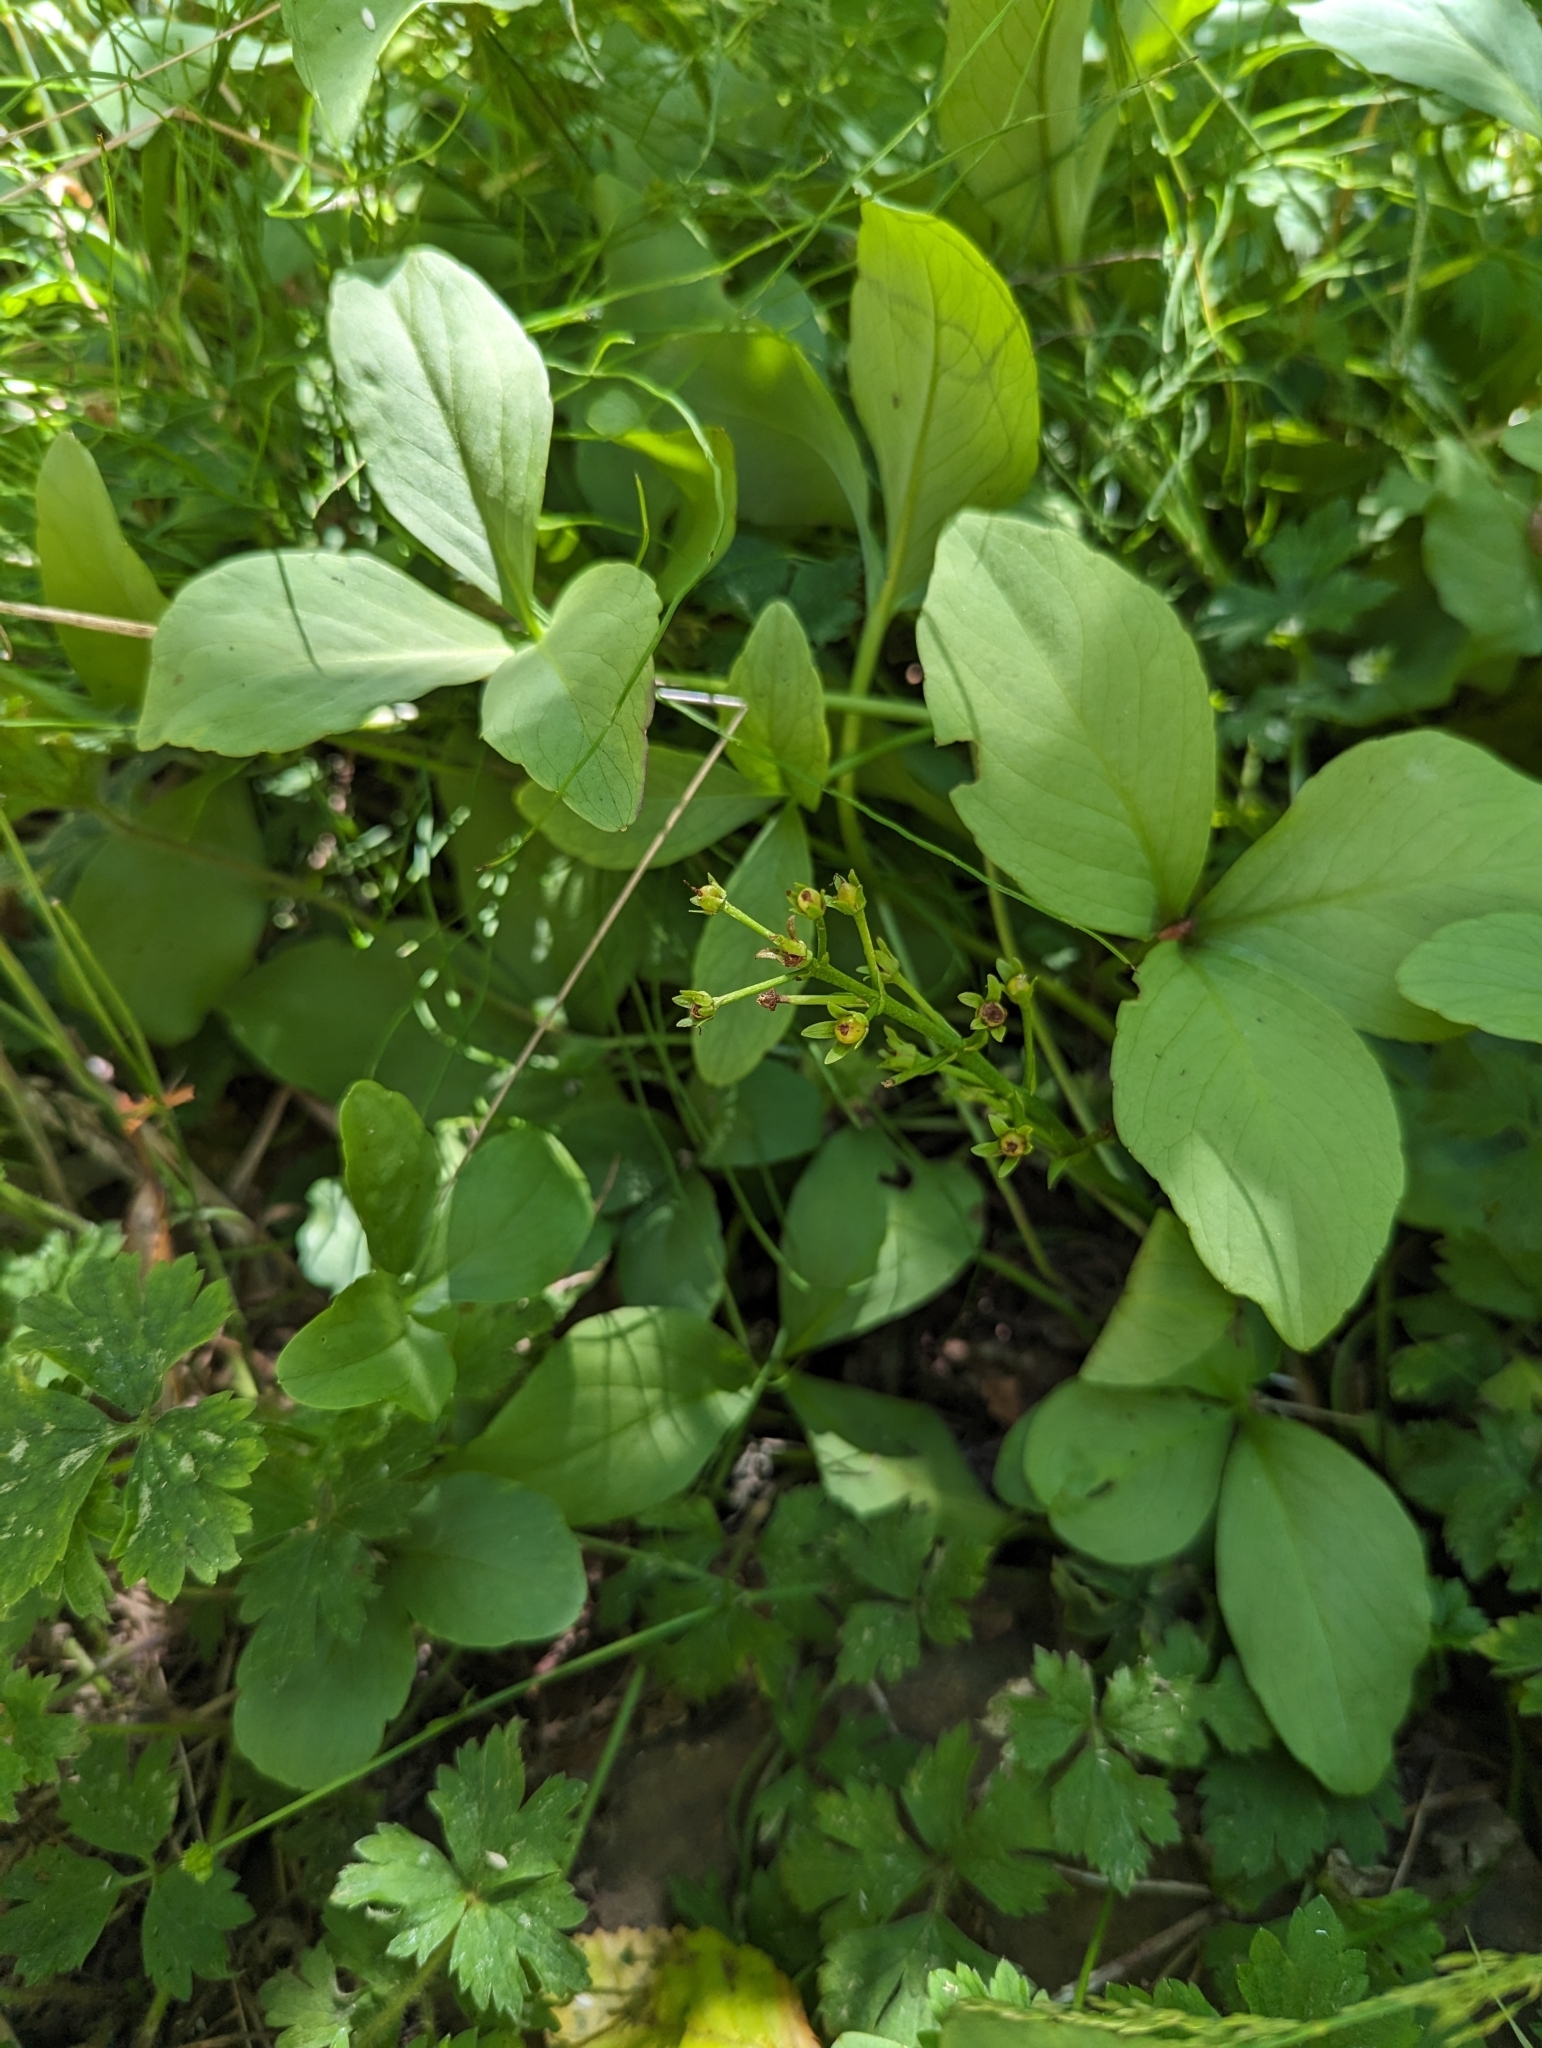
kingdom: Plantae
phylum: Tracheophyta
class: Magnoliopsida
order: Asterales
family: Menyanthaceae
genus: Menyanthes
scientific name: Menyanthes trifoliata
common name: Bogbean
